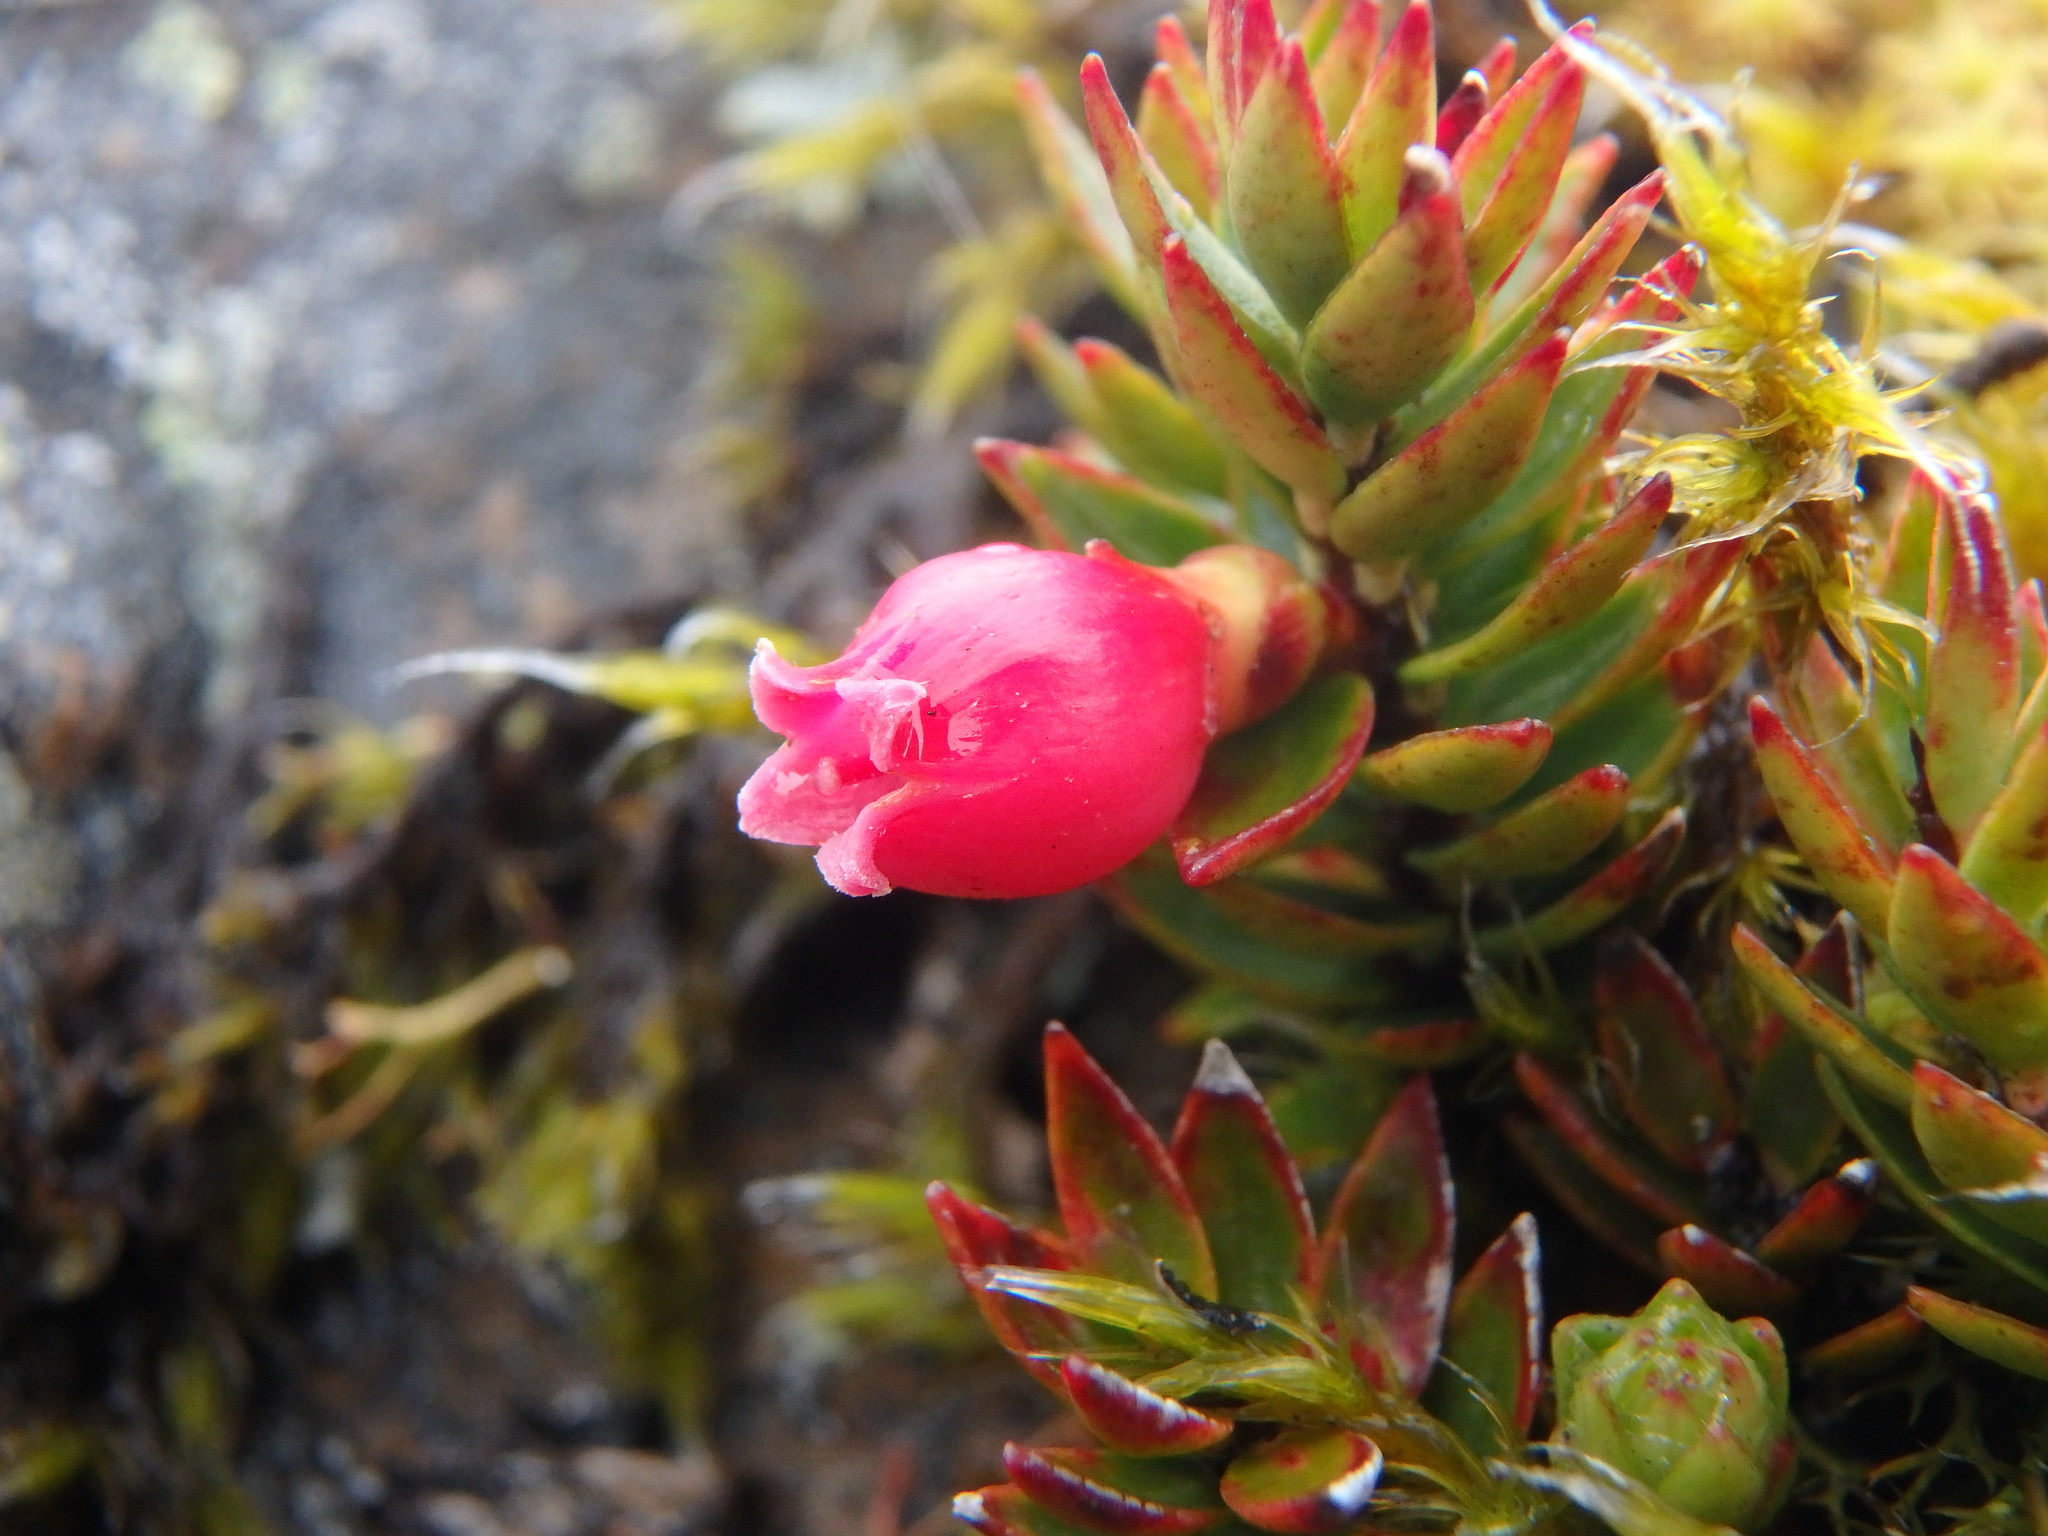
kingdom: Plantae
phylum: Tracheophyta
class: Magnoliopsida
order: Ericales
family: Ericaceae
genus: Disterigma
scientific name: Disterigma empetrifolium
